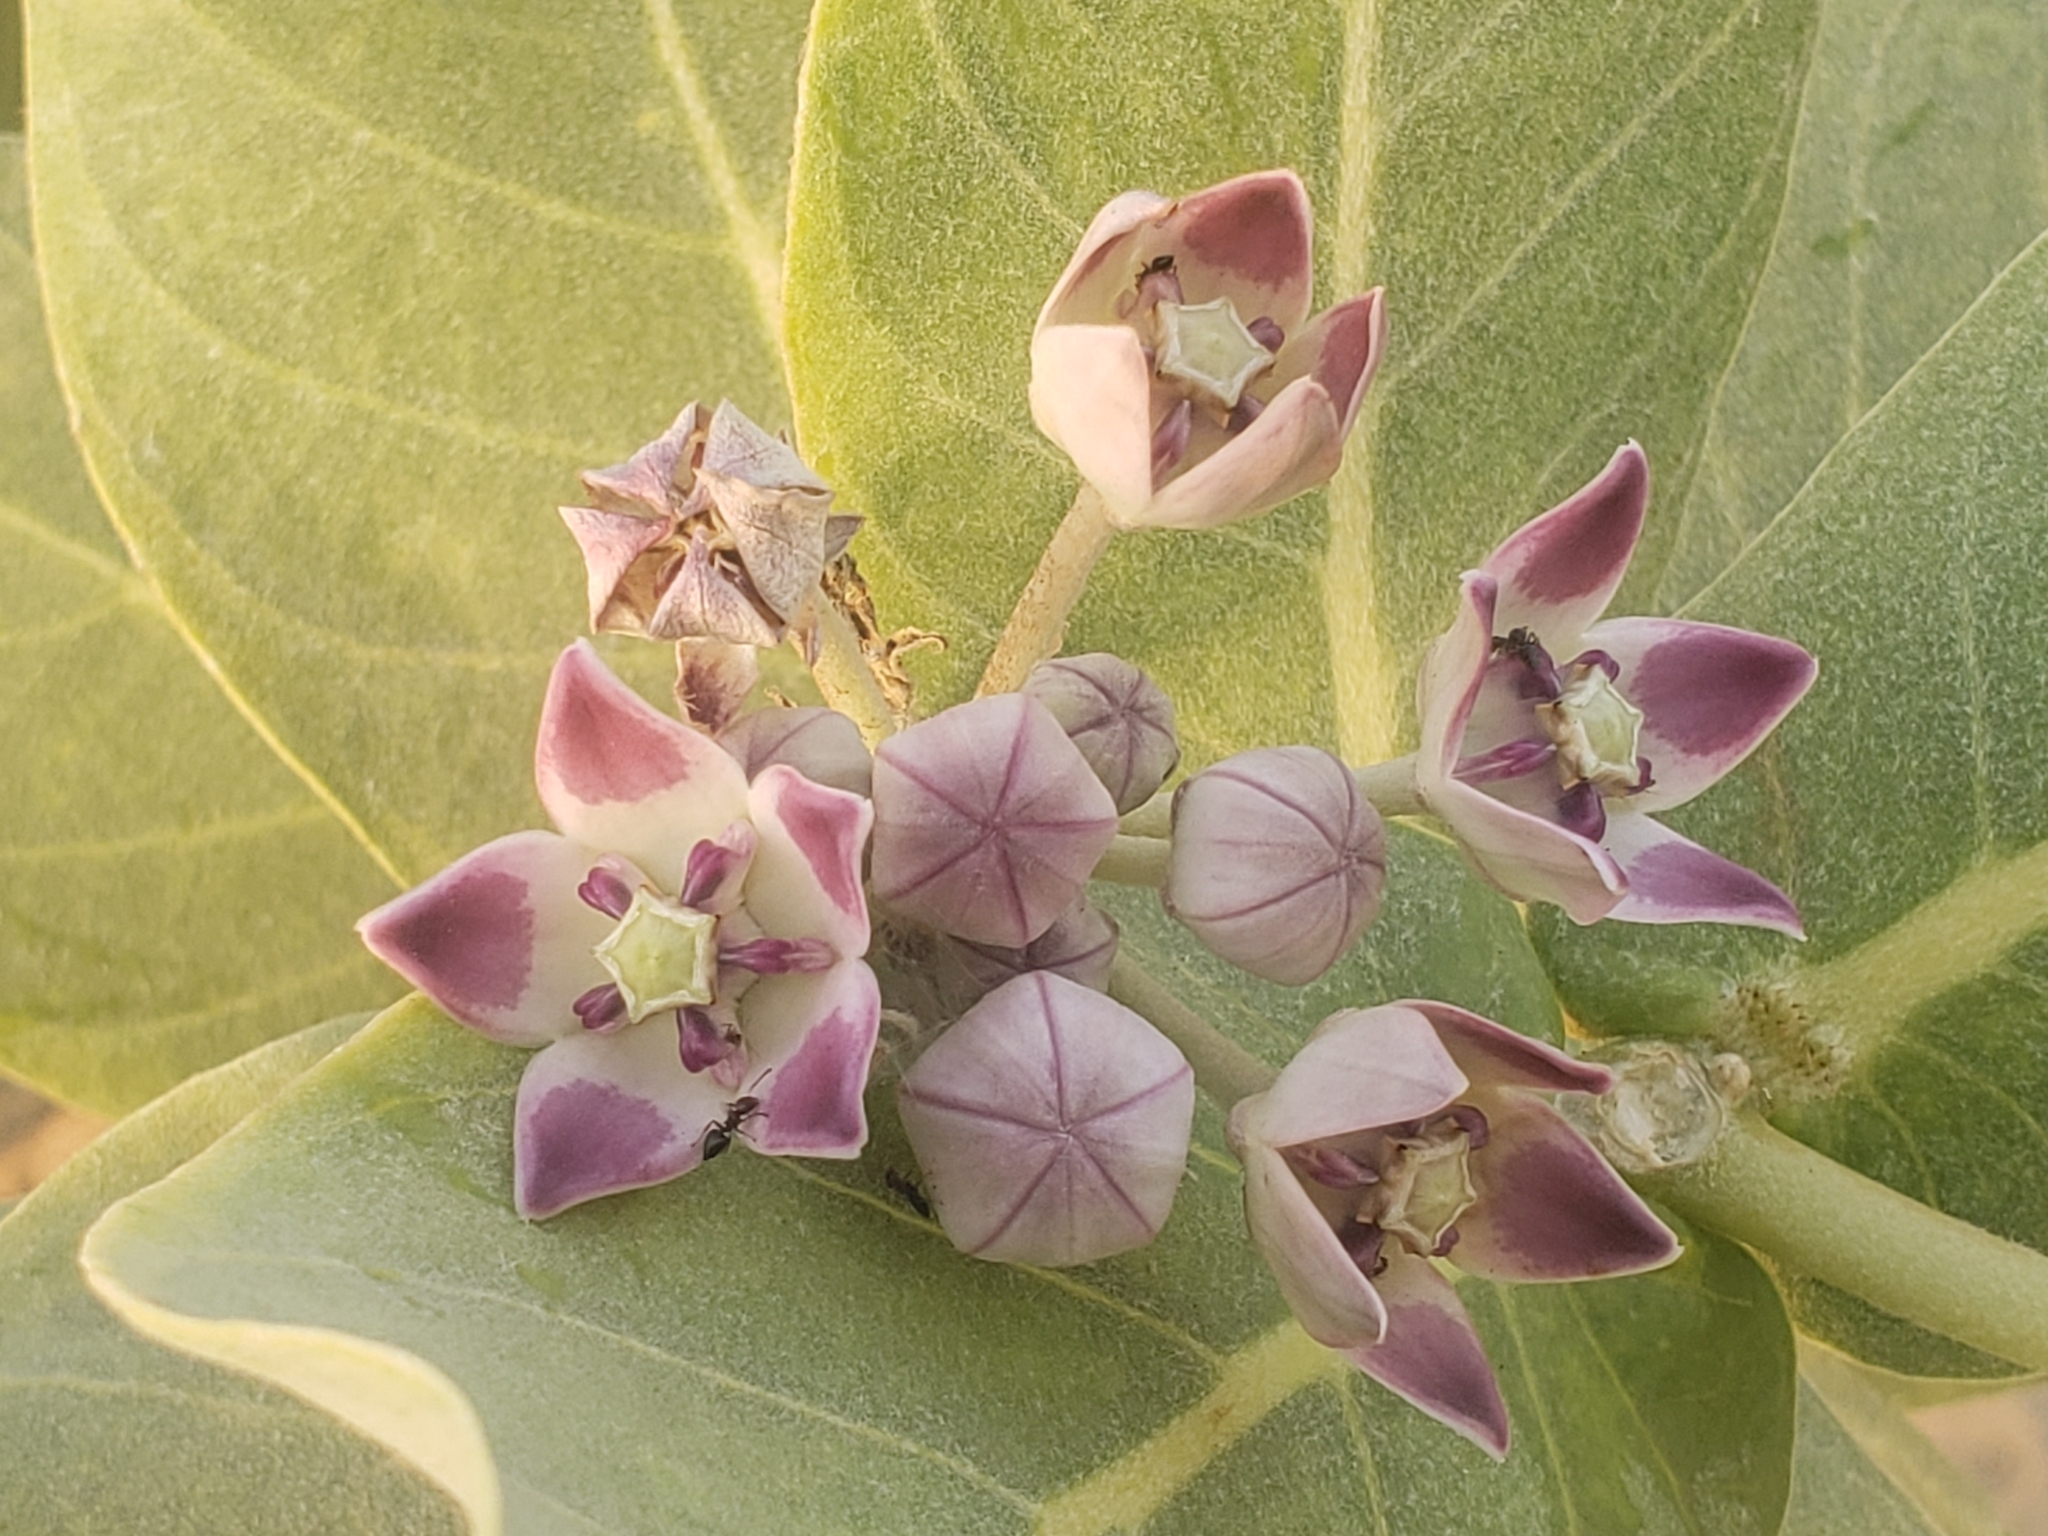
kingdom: Plantae
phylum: Tracheophyta
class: Magnoliopsida
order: Gentianales
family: Apocynaceae
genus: Calotropis
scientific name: Calotropis procera
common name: Roostertree
